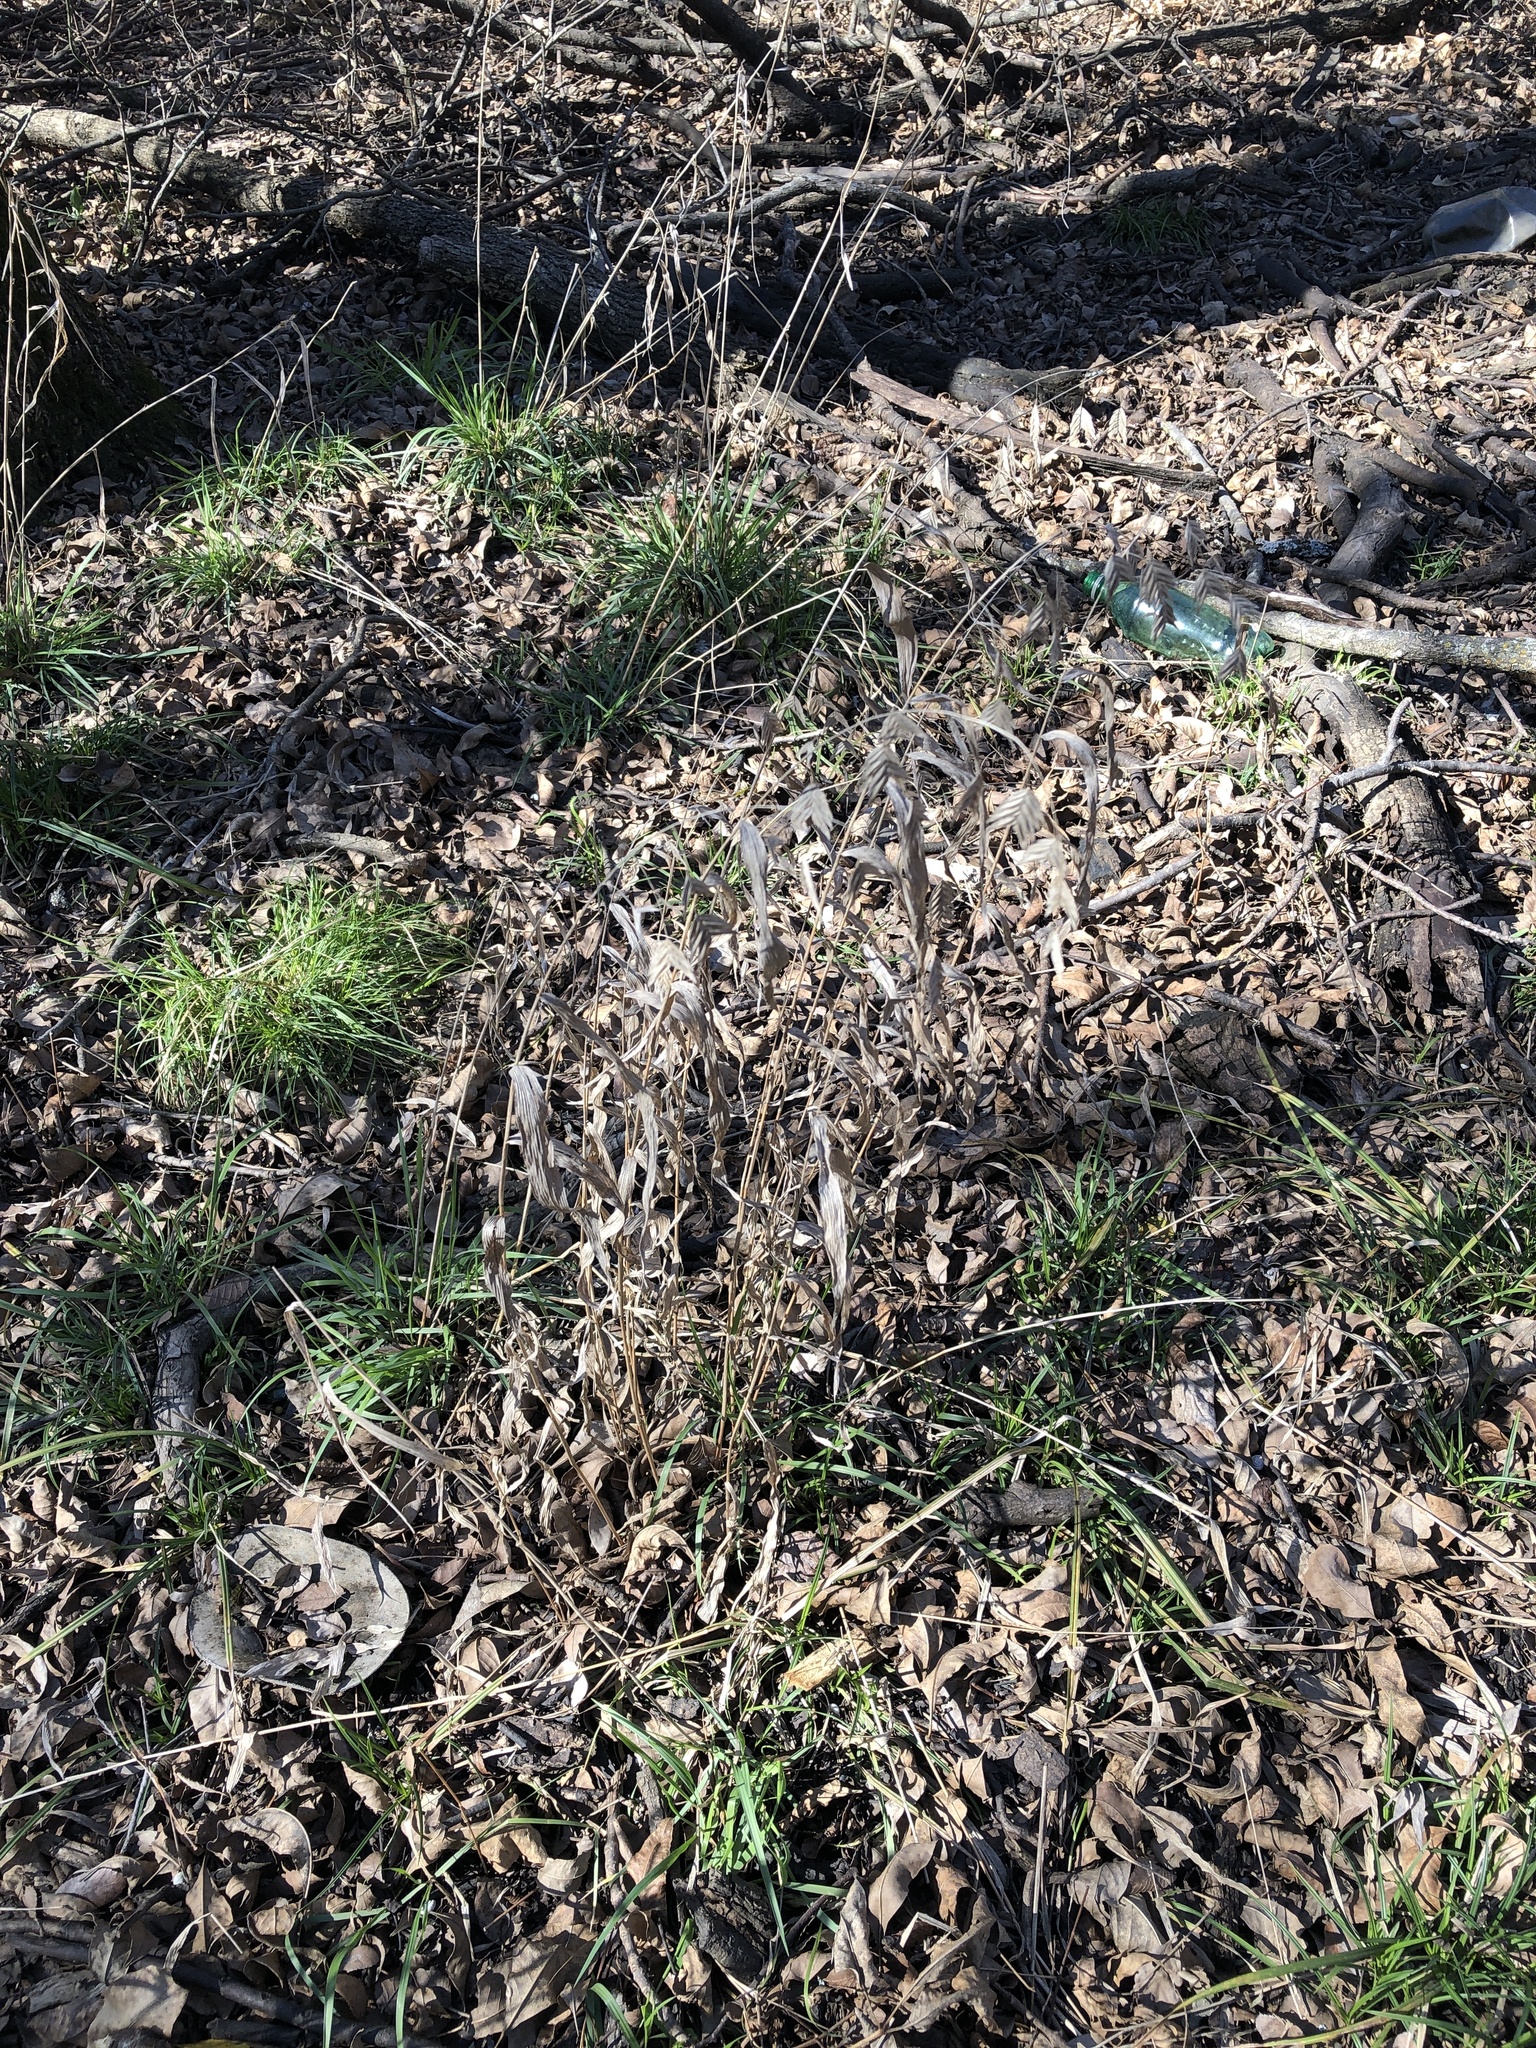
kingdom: Plantae
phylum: Tracheophyta
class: Liliopsida
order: Poales
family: Poaceae
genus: Chasmanthium
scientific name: Chasmanthium latifolium
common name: Broad-leaved chasmanthium
